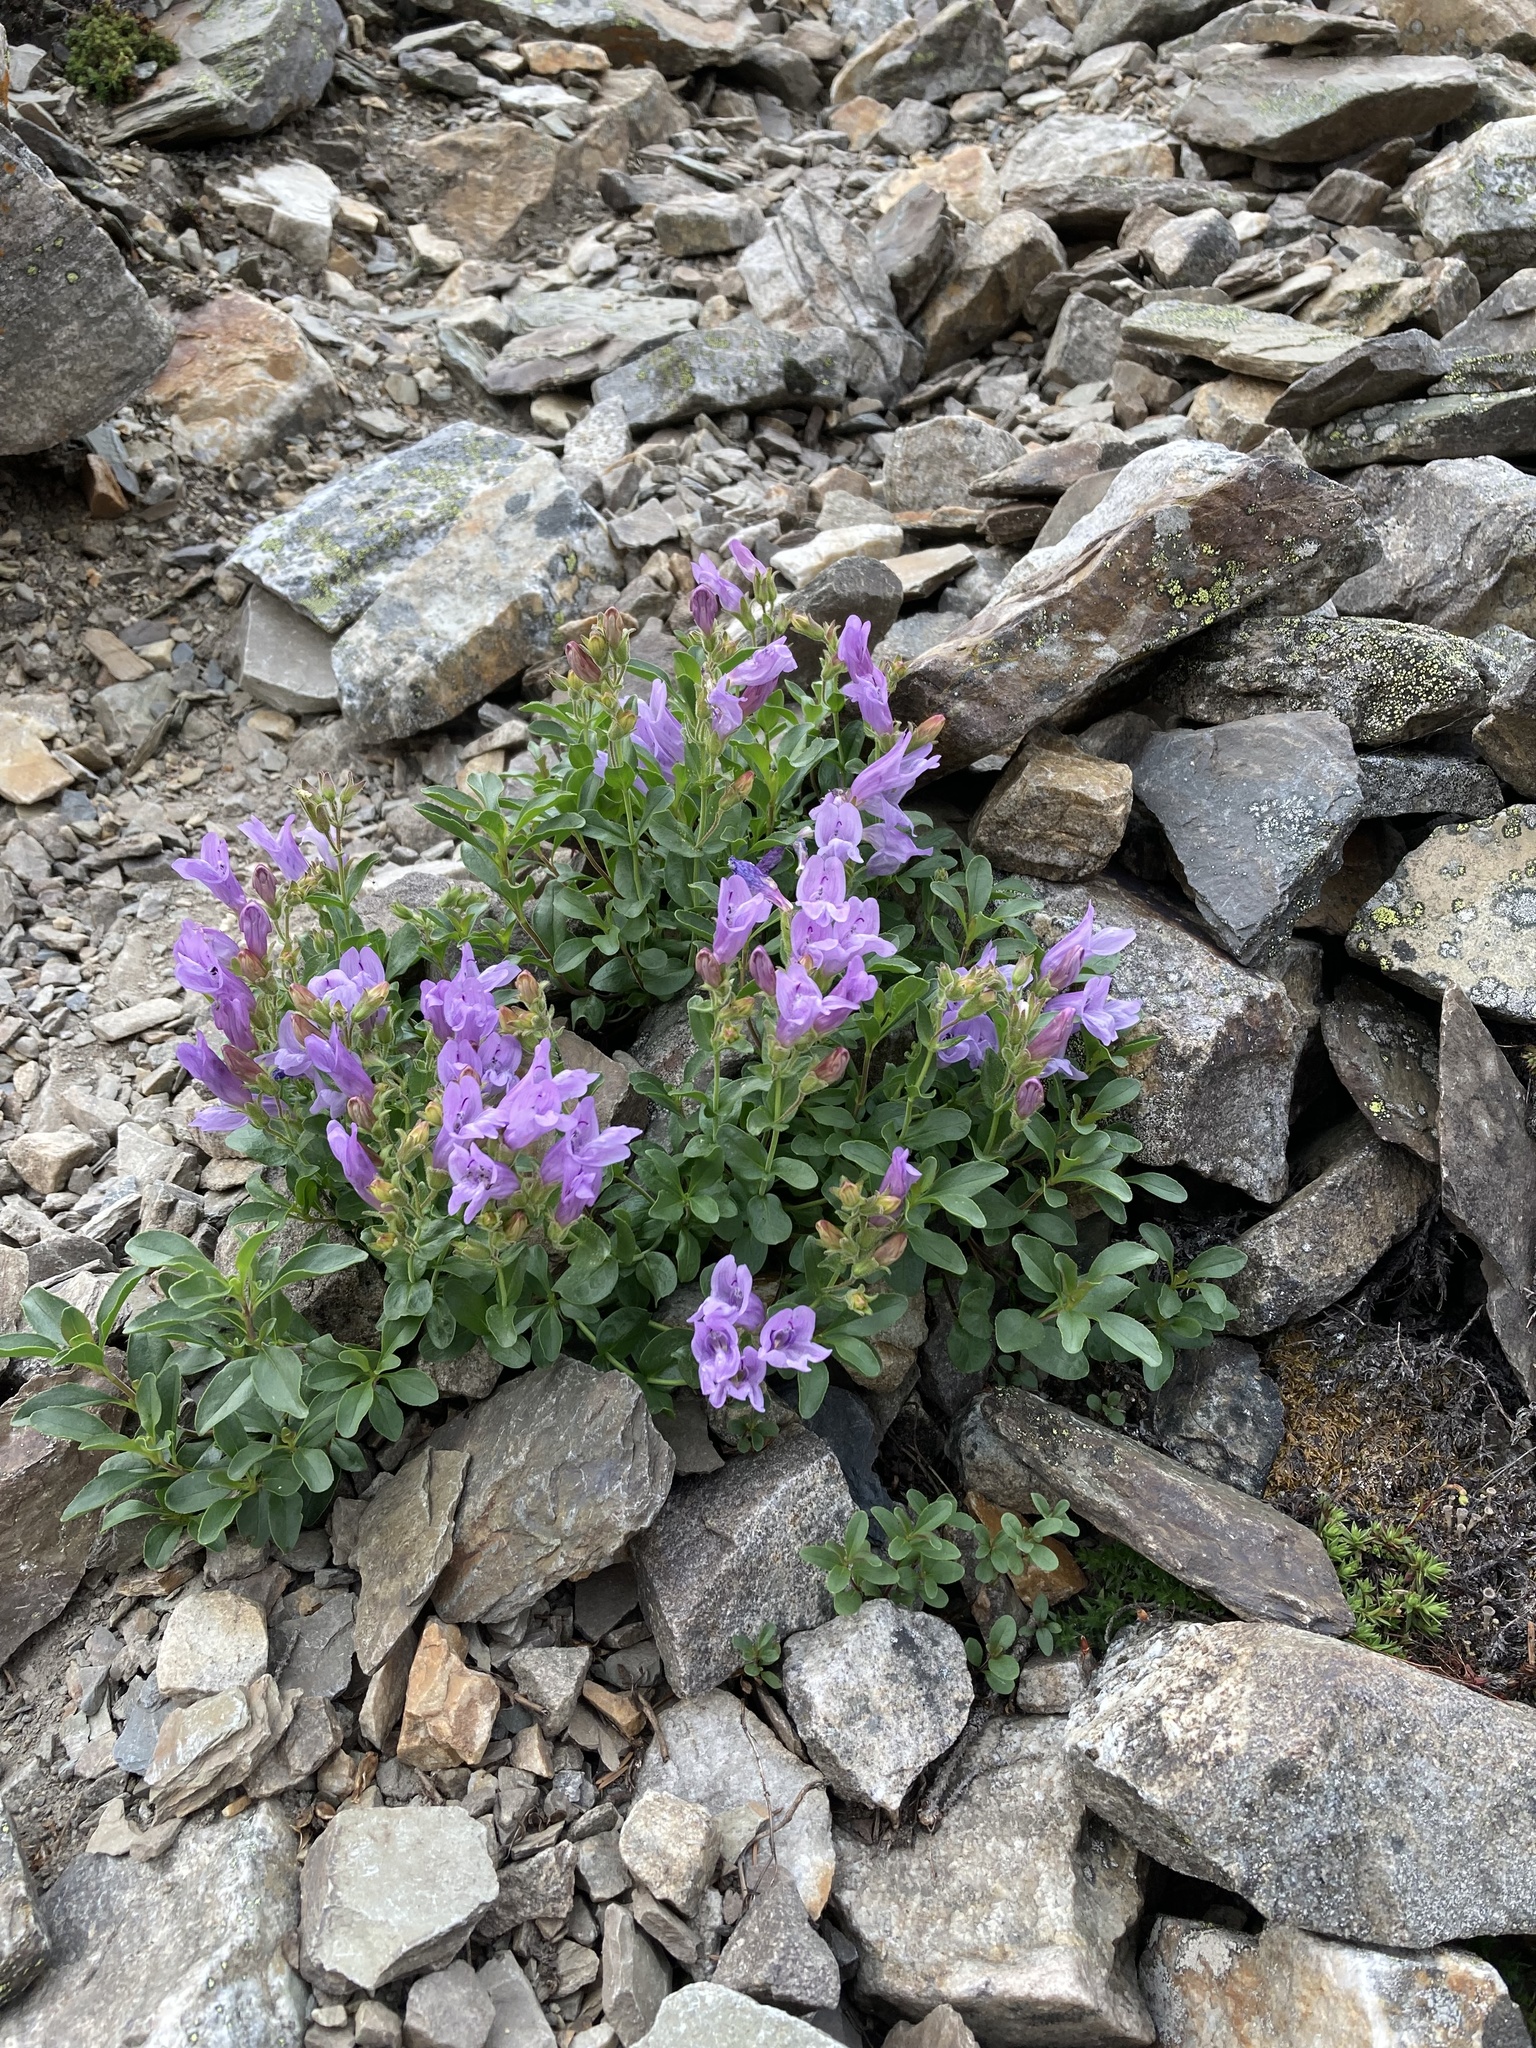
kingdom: Plantae
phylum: Tracheophyta
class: Magnoliopsida
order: Lamiales
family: Plantaginaceae
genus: Penstemon
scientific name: Penstemon ellipticus
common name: Alpine beardtongue
